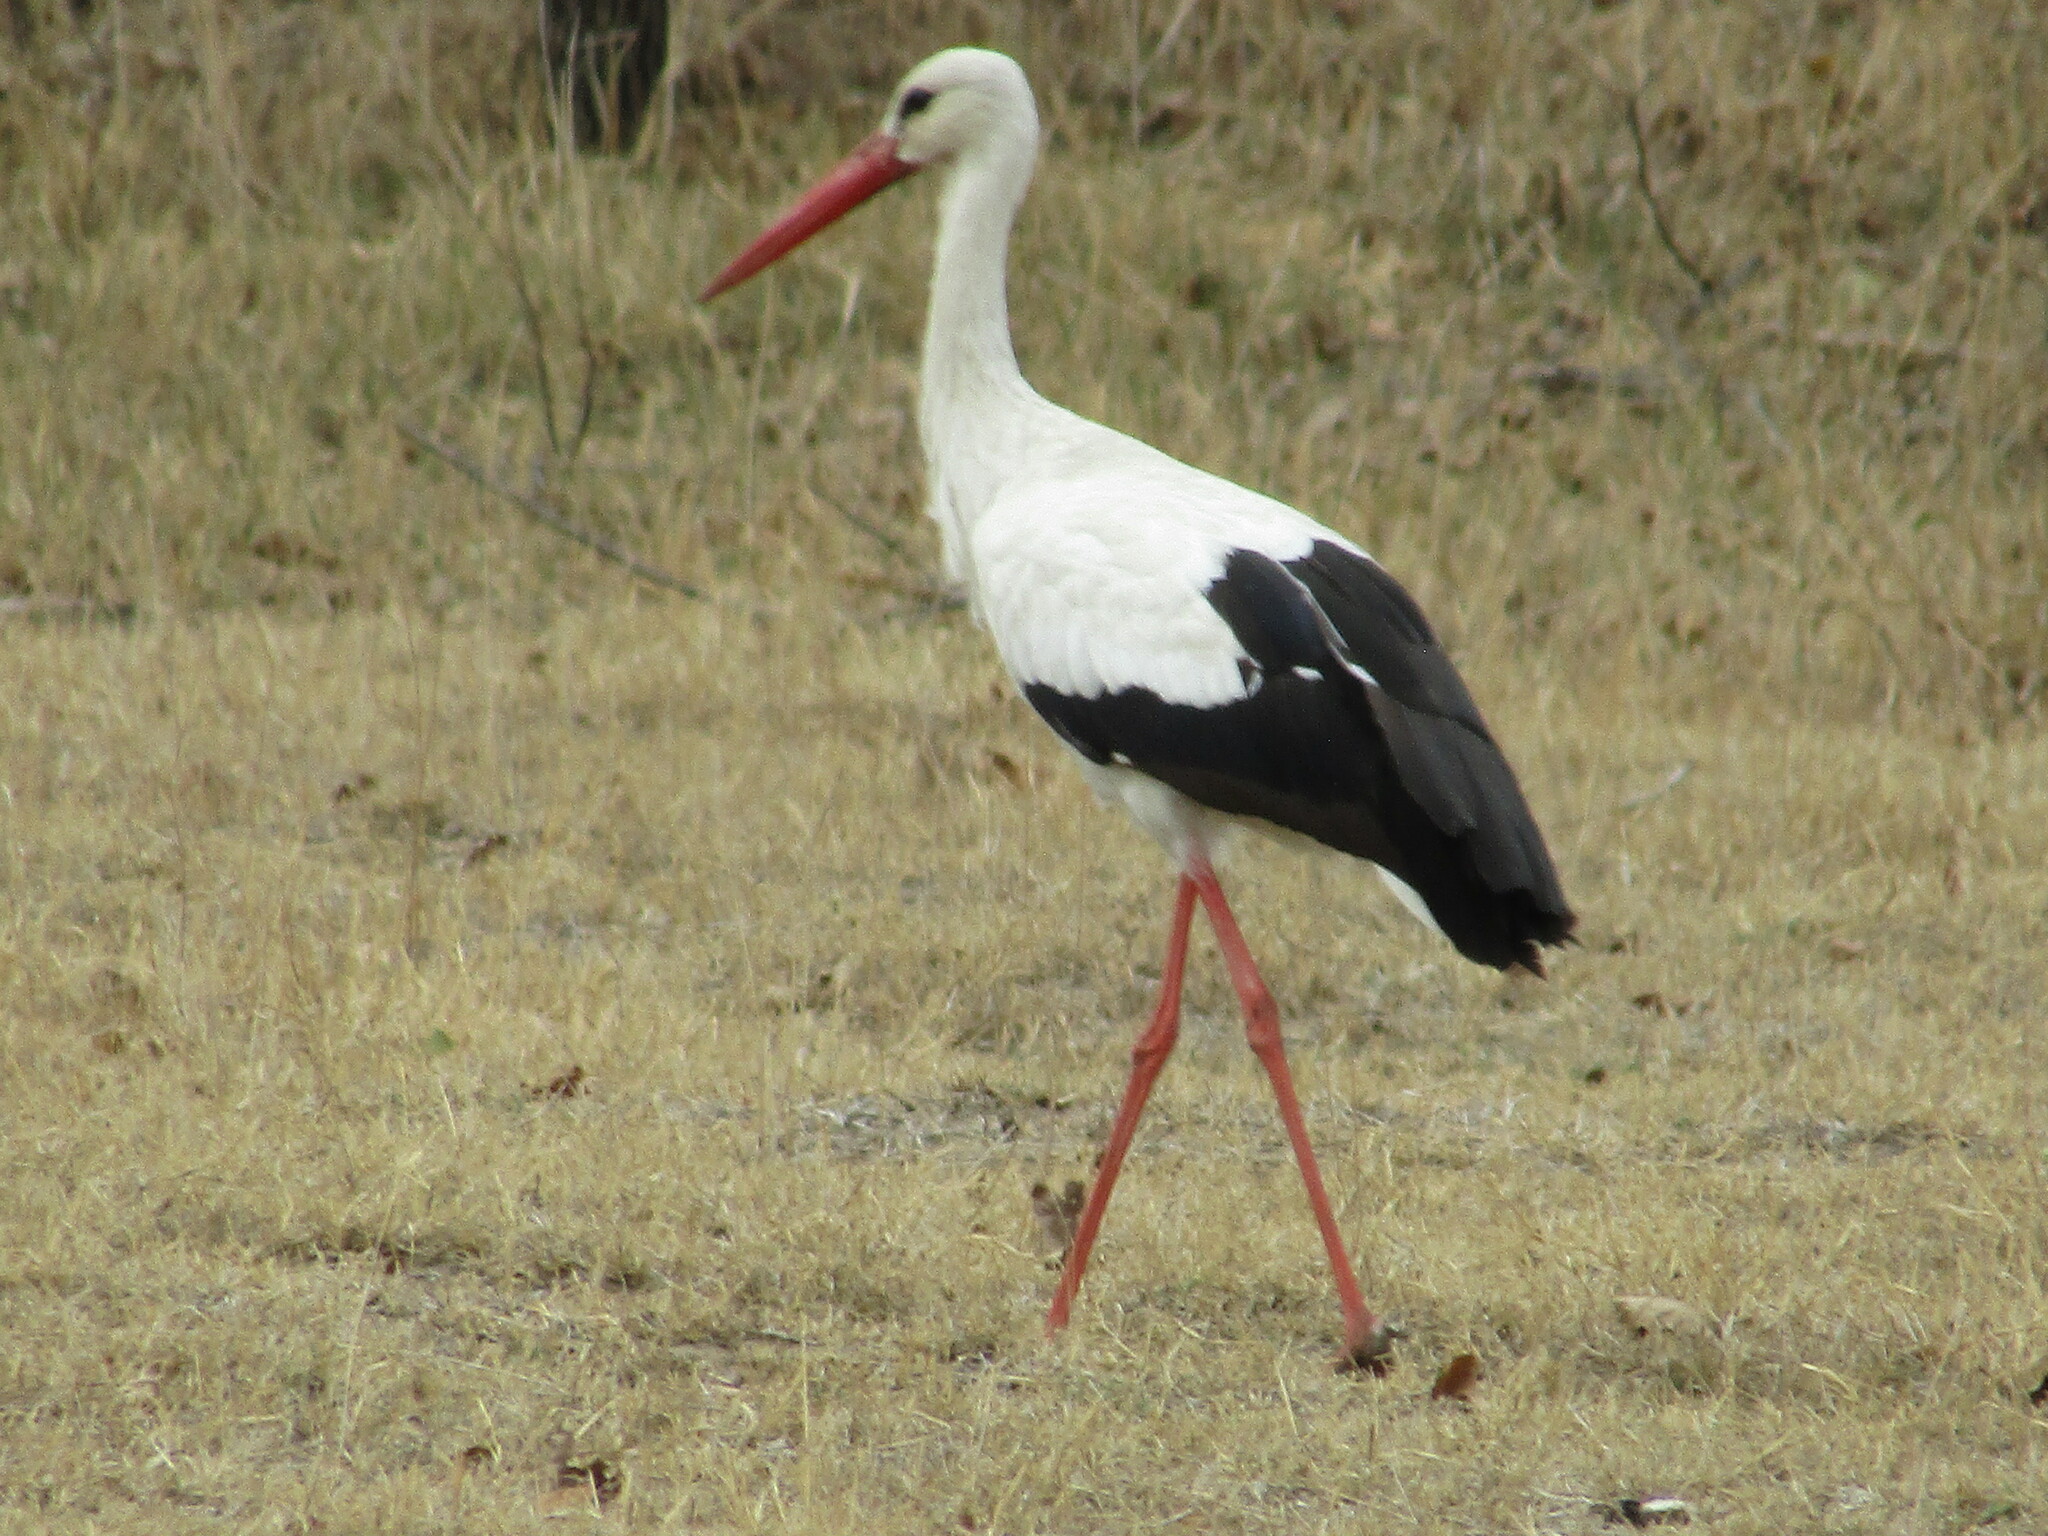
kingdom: Animalia
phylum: Chordata
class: Aves
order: Ciconiiformes
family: Ciconiidae
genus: Ciconia
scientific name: Ciconia ciconia
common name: White stork
